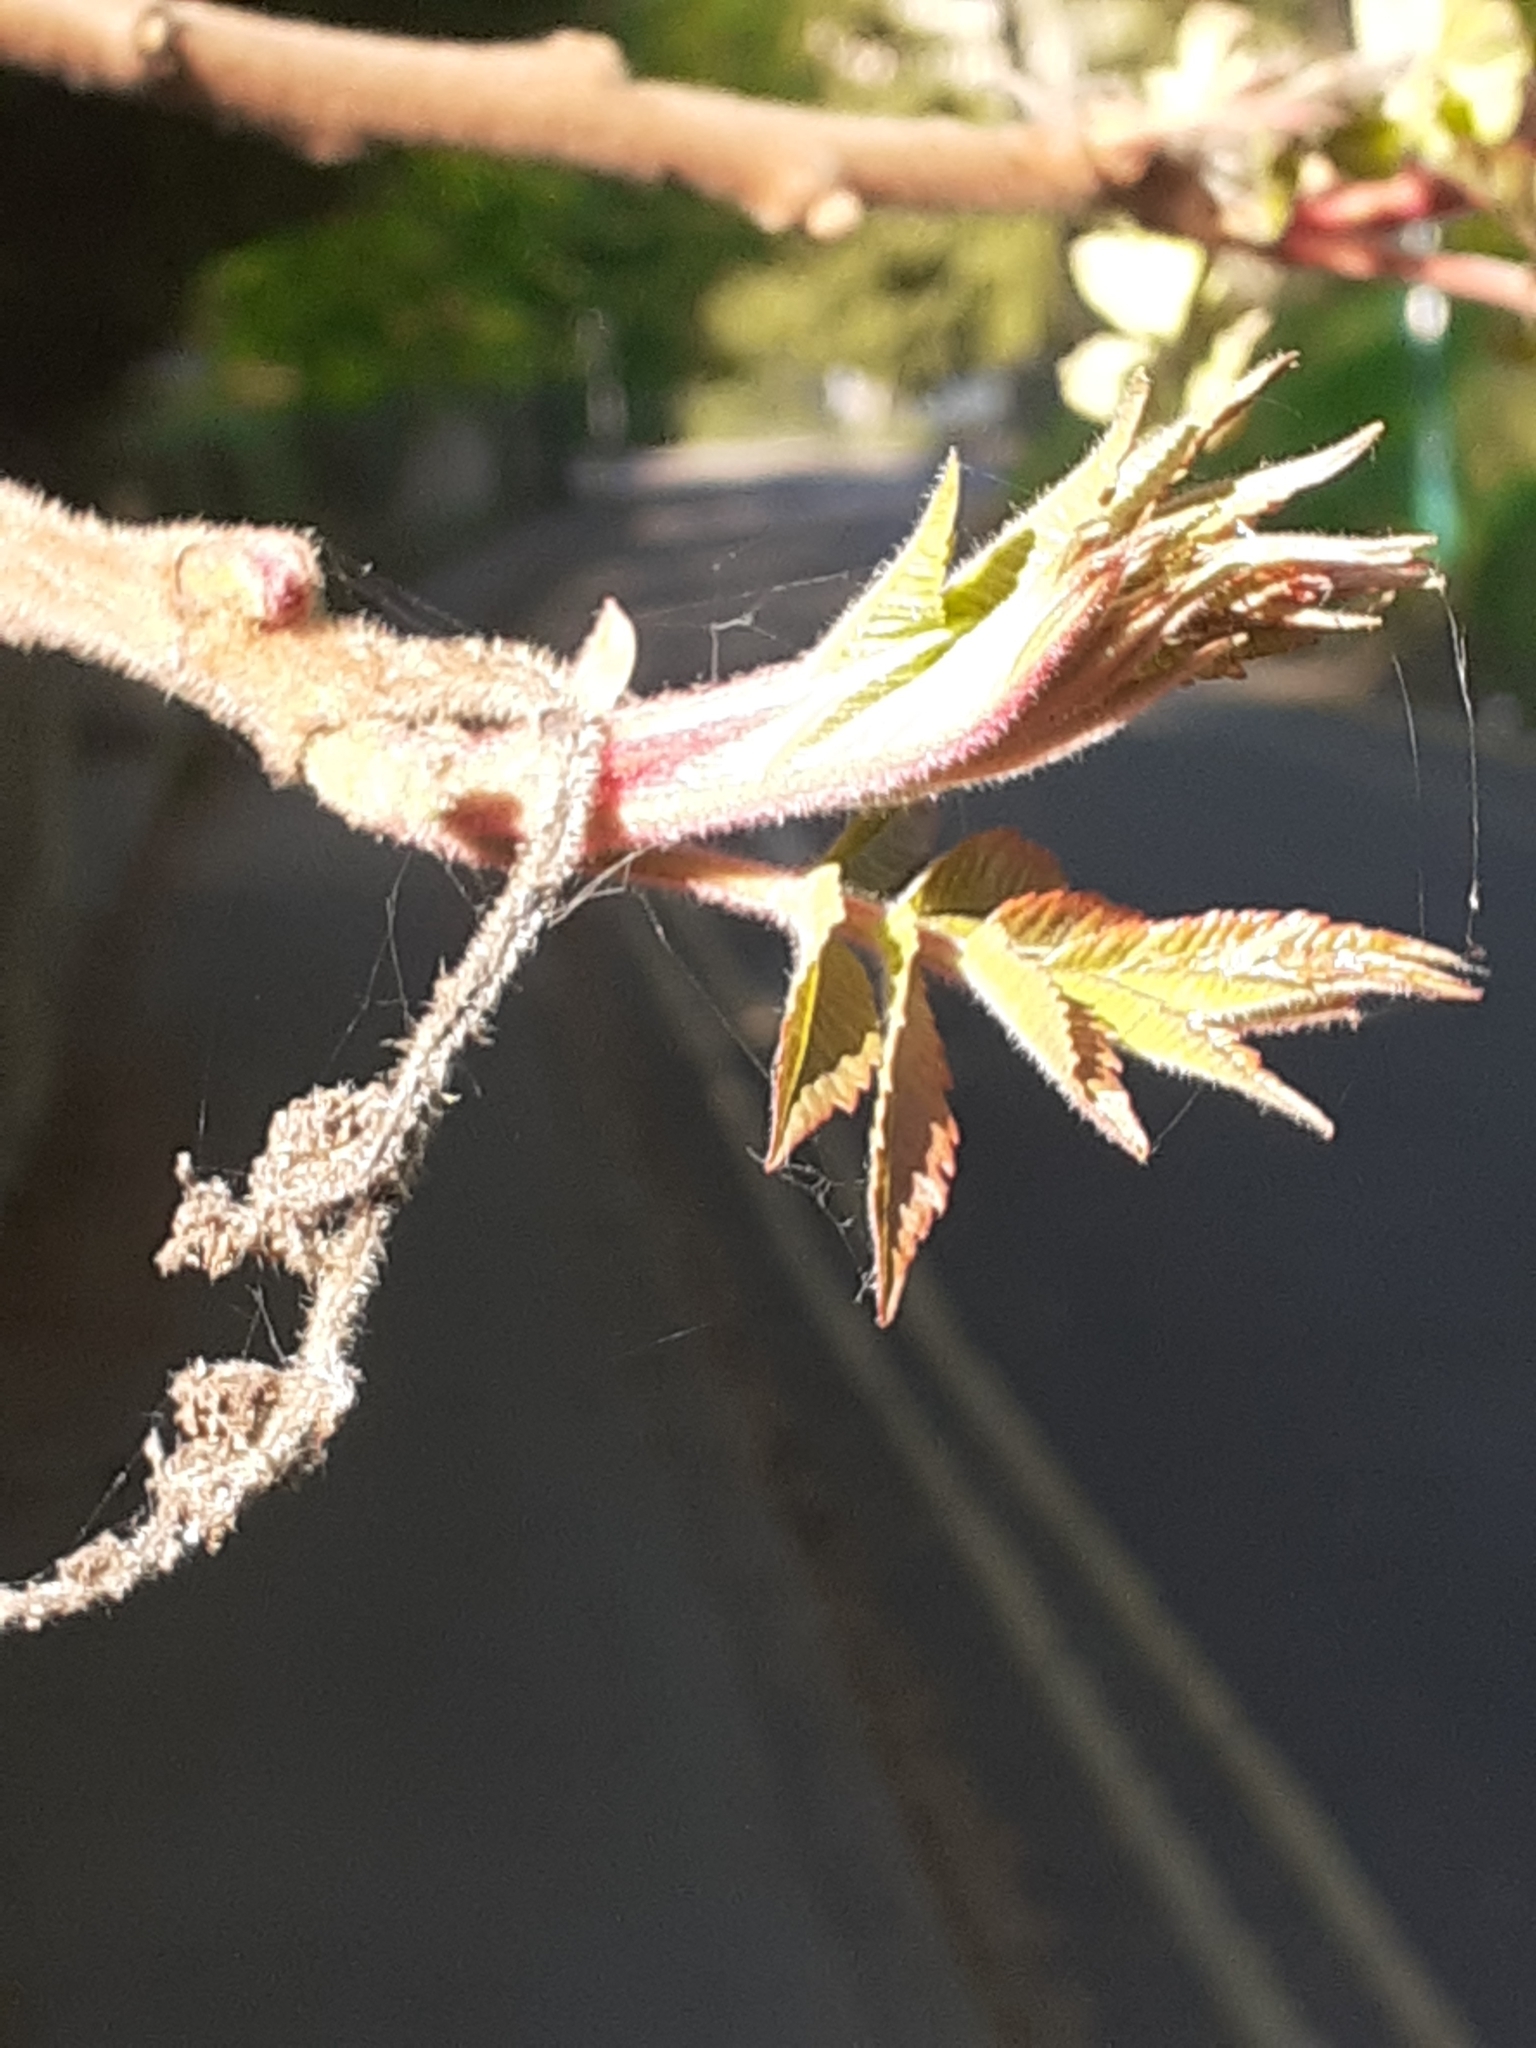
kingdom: Plantae
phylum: Tracheophyta
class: Magnoliopsida
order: Sapindales
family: Anacardiaceae
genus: Rhus
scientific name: Rhus typhina
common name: Staghorn sumac
